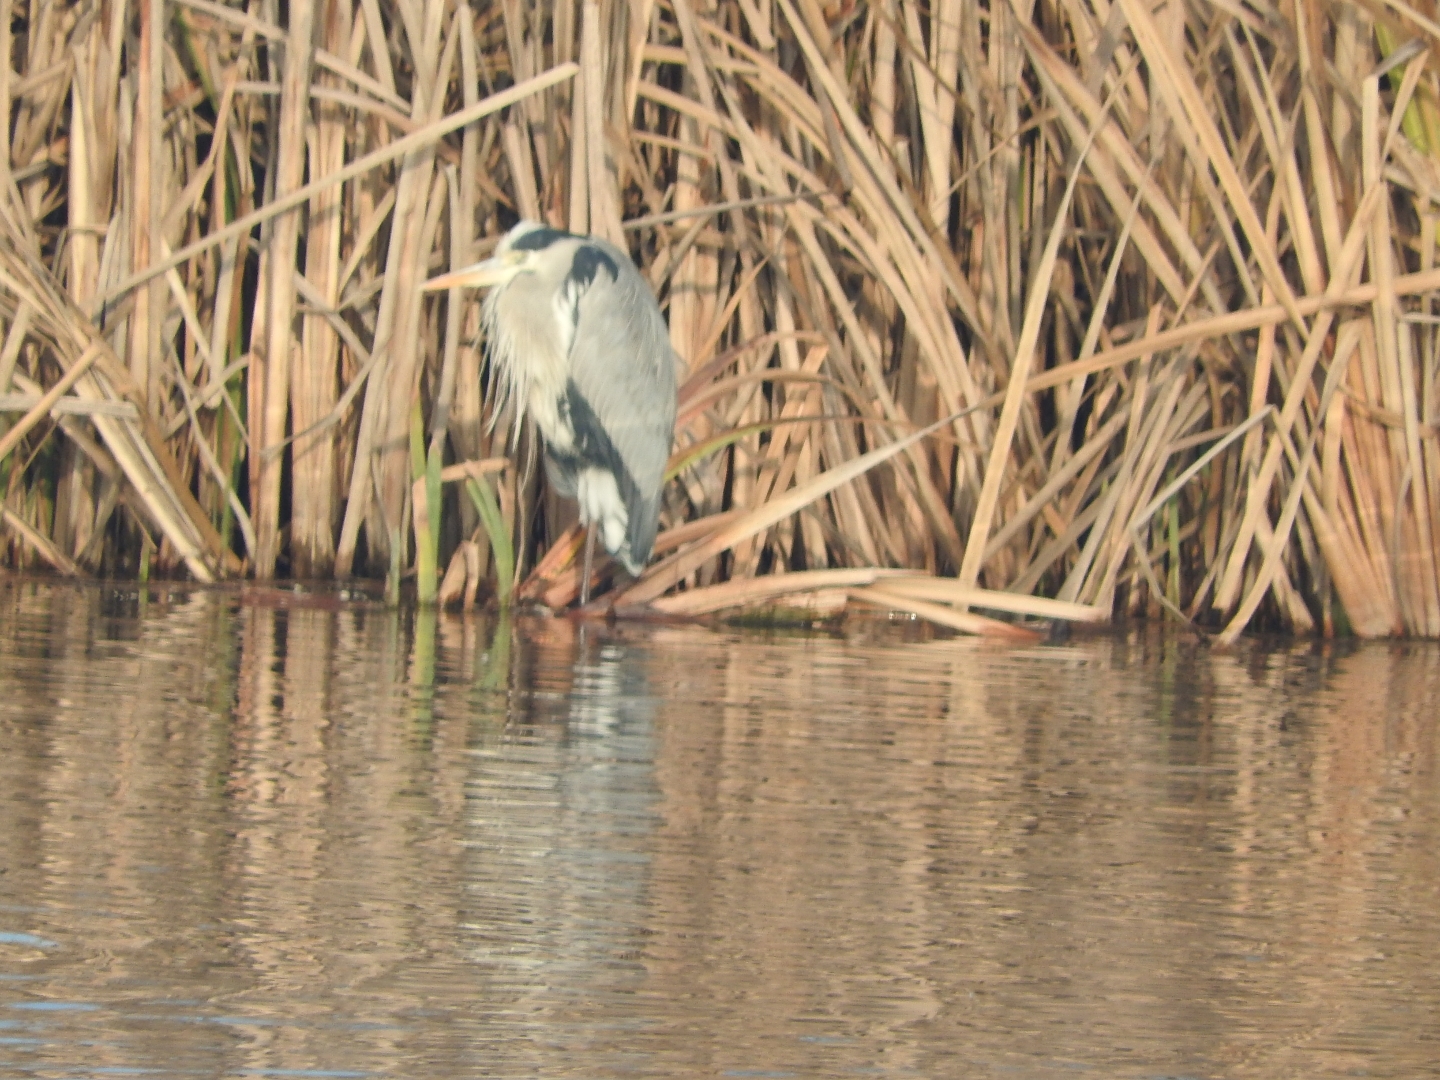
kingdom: Animalia
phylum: Chordata
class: Aves
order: Pelecaniformes
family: Ardeidae
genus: Ardea
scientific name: Ardea cinerea
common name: Grey heron
